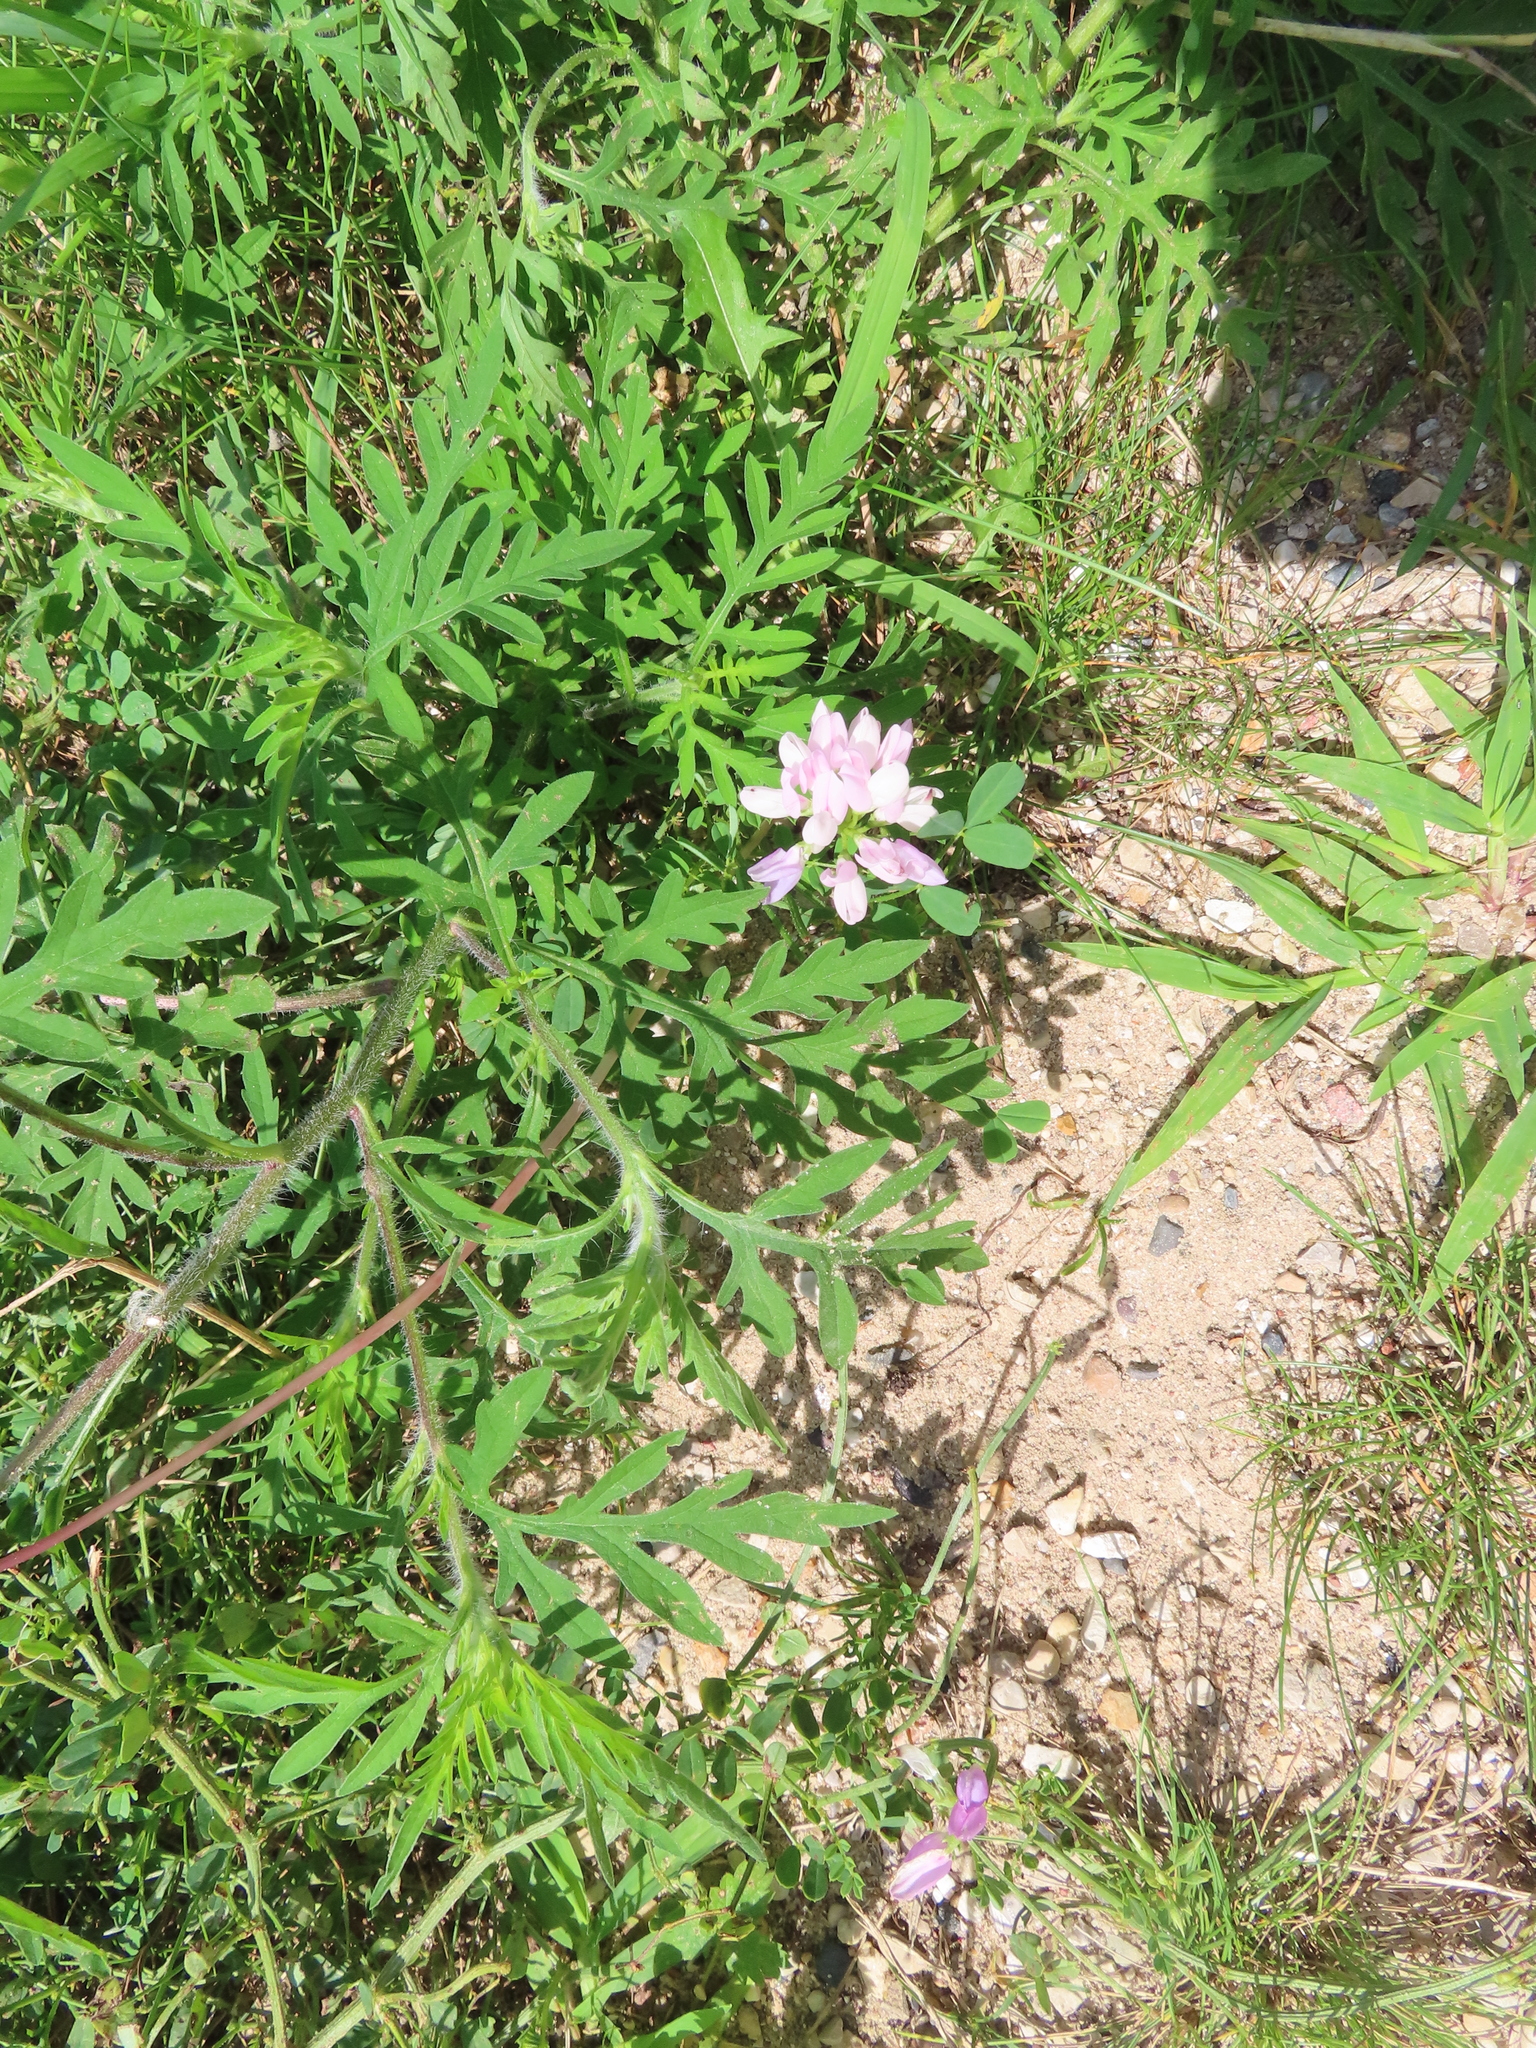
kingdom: Plantae
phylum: Tracheophyta
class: Magnoliopsida
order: Fabales
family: Fabaceae
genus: Coronilla
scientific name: Coronilla varia
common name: Crownvetch
